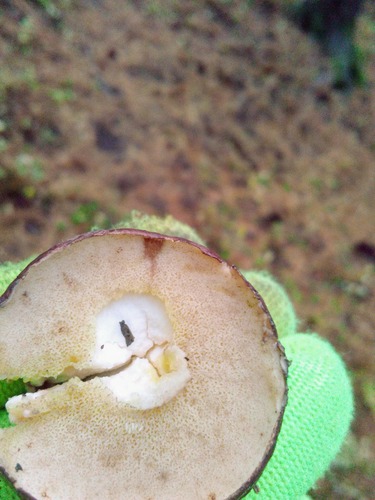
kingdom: Fungi
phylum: Basidiomycota
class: Agaricomycetes
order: Boletales
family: Suillaceae
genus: Suillus
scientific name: Suillus placidus
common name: Slippery white bolete
